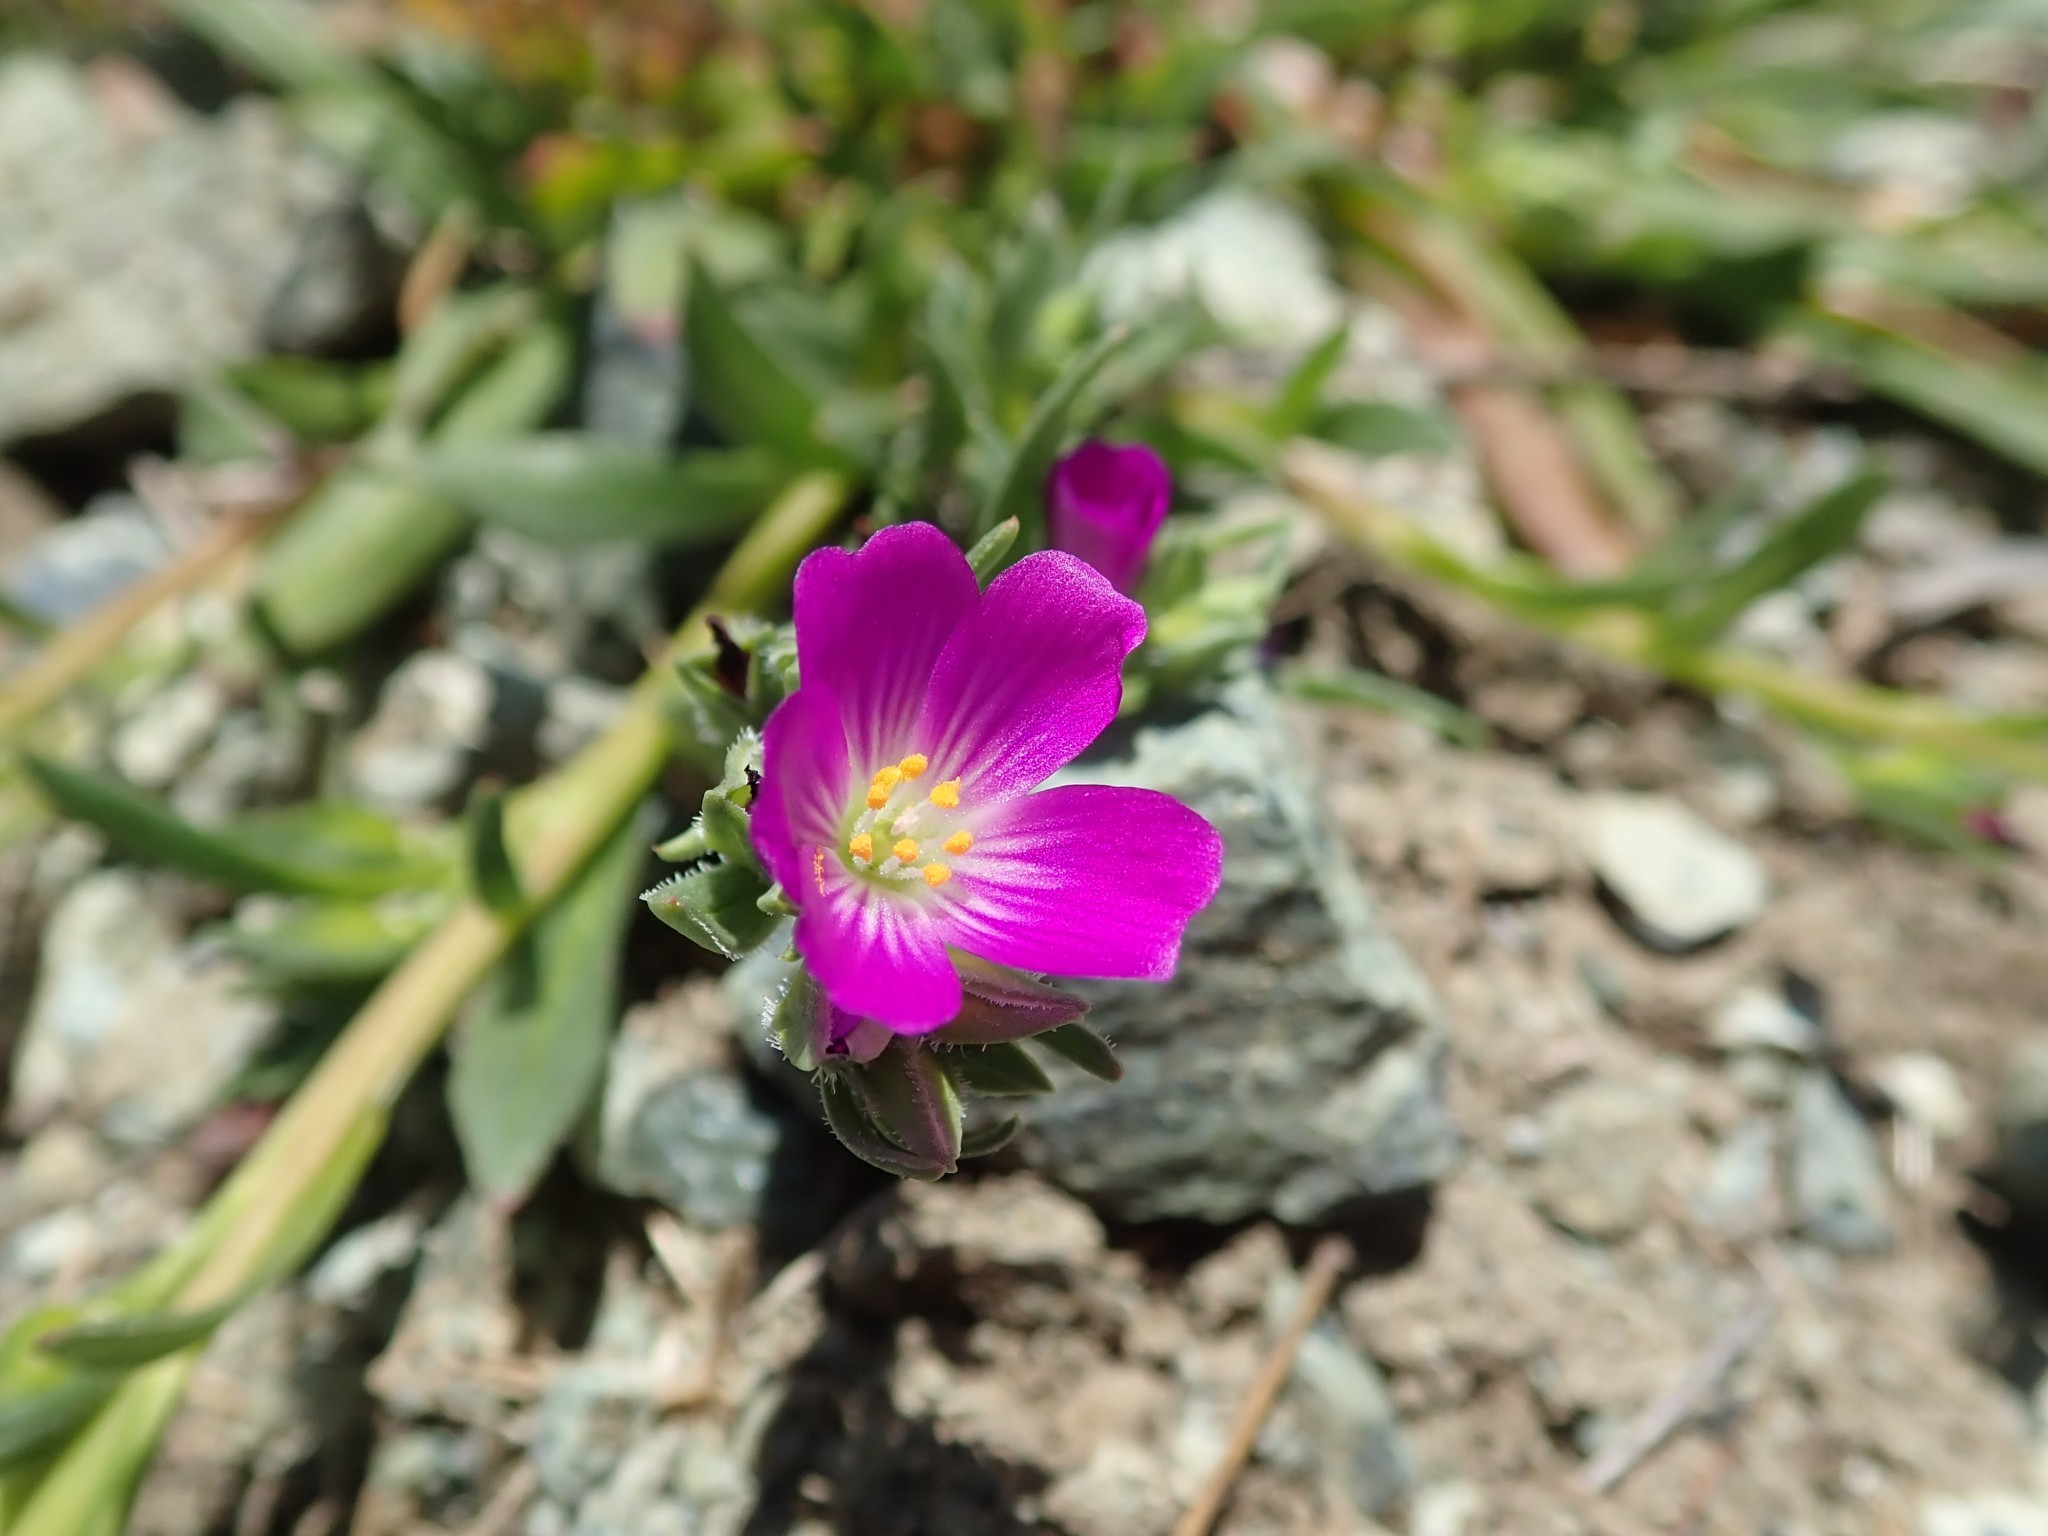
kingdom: Plantae
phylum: Tracheophyta
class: Magnoliopsida
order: Caryophyllales
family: Montiaceae
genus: Calandrinia
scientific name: Calandrinia menziesii
